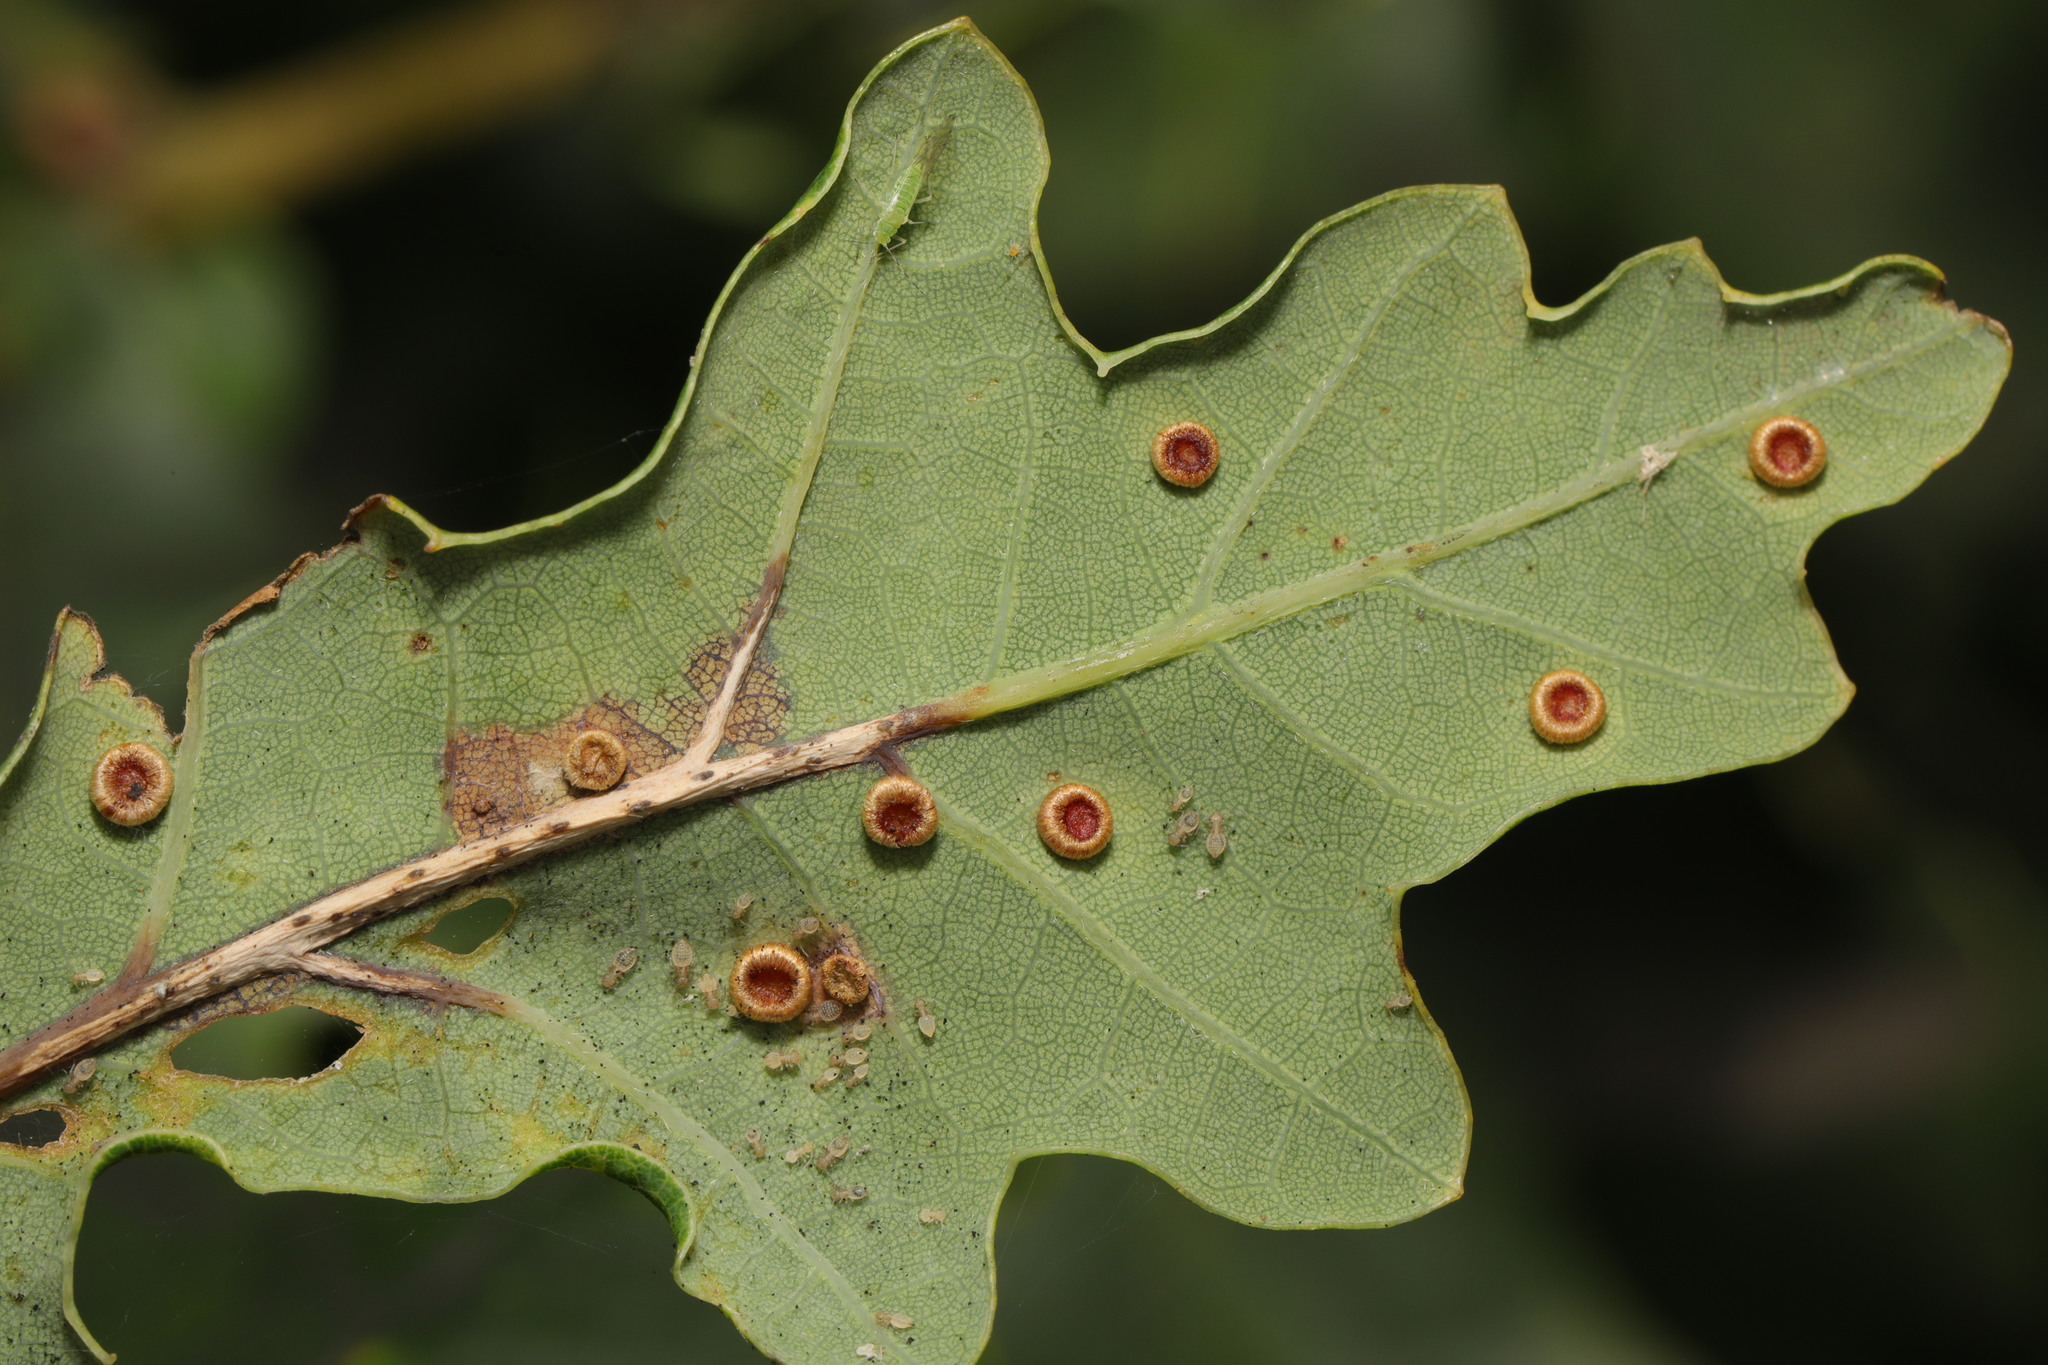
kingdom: Animalia
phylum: Arthropoda
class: Insecta
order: Hymenoptera
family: Cynipidae
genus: Neuroterus
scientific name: Neuroterus numismalis
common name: Silk-button spangle gall
